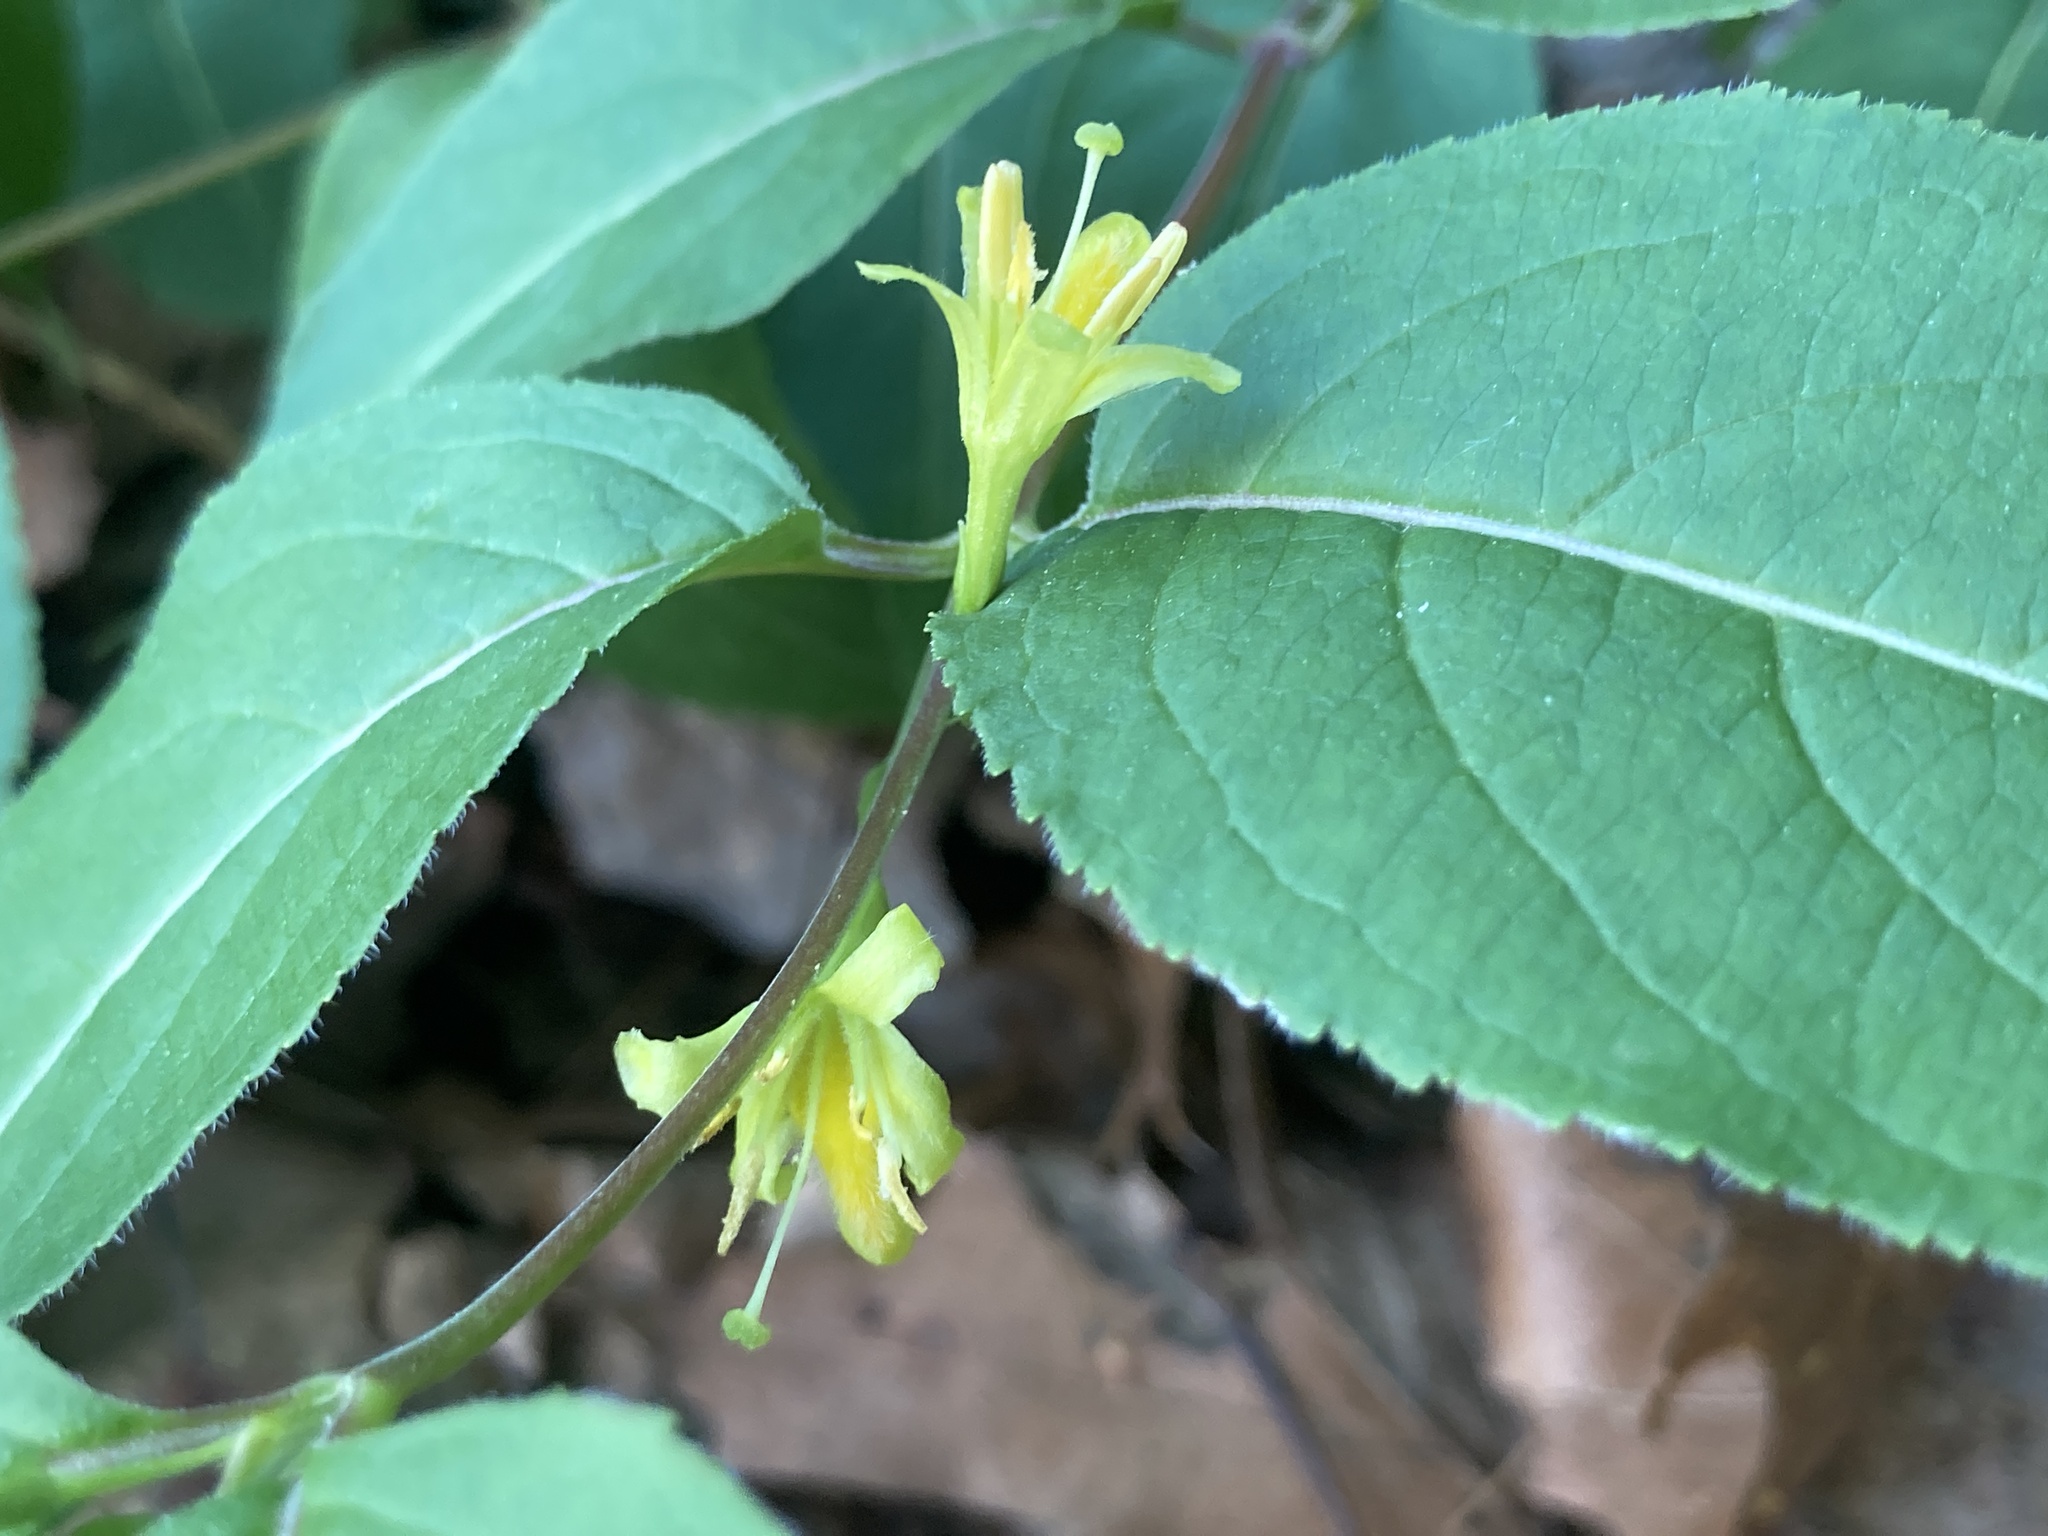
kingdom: Plantae
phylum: Tracheophyta
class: Magnoliopsida
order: Dipsacales
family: Caprifoliaceae
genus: Diervilla
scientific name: Diervilla lonicera
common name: Bush-honeysuckle
